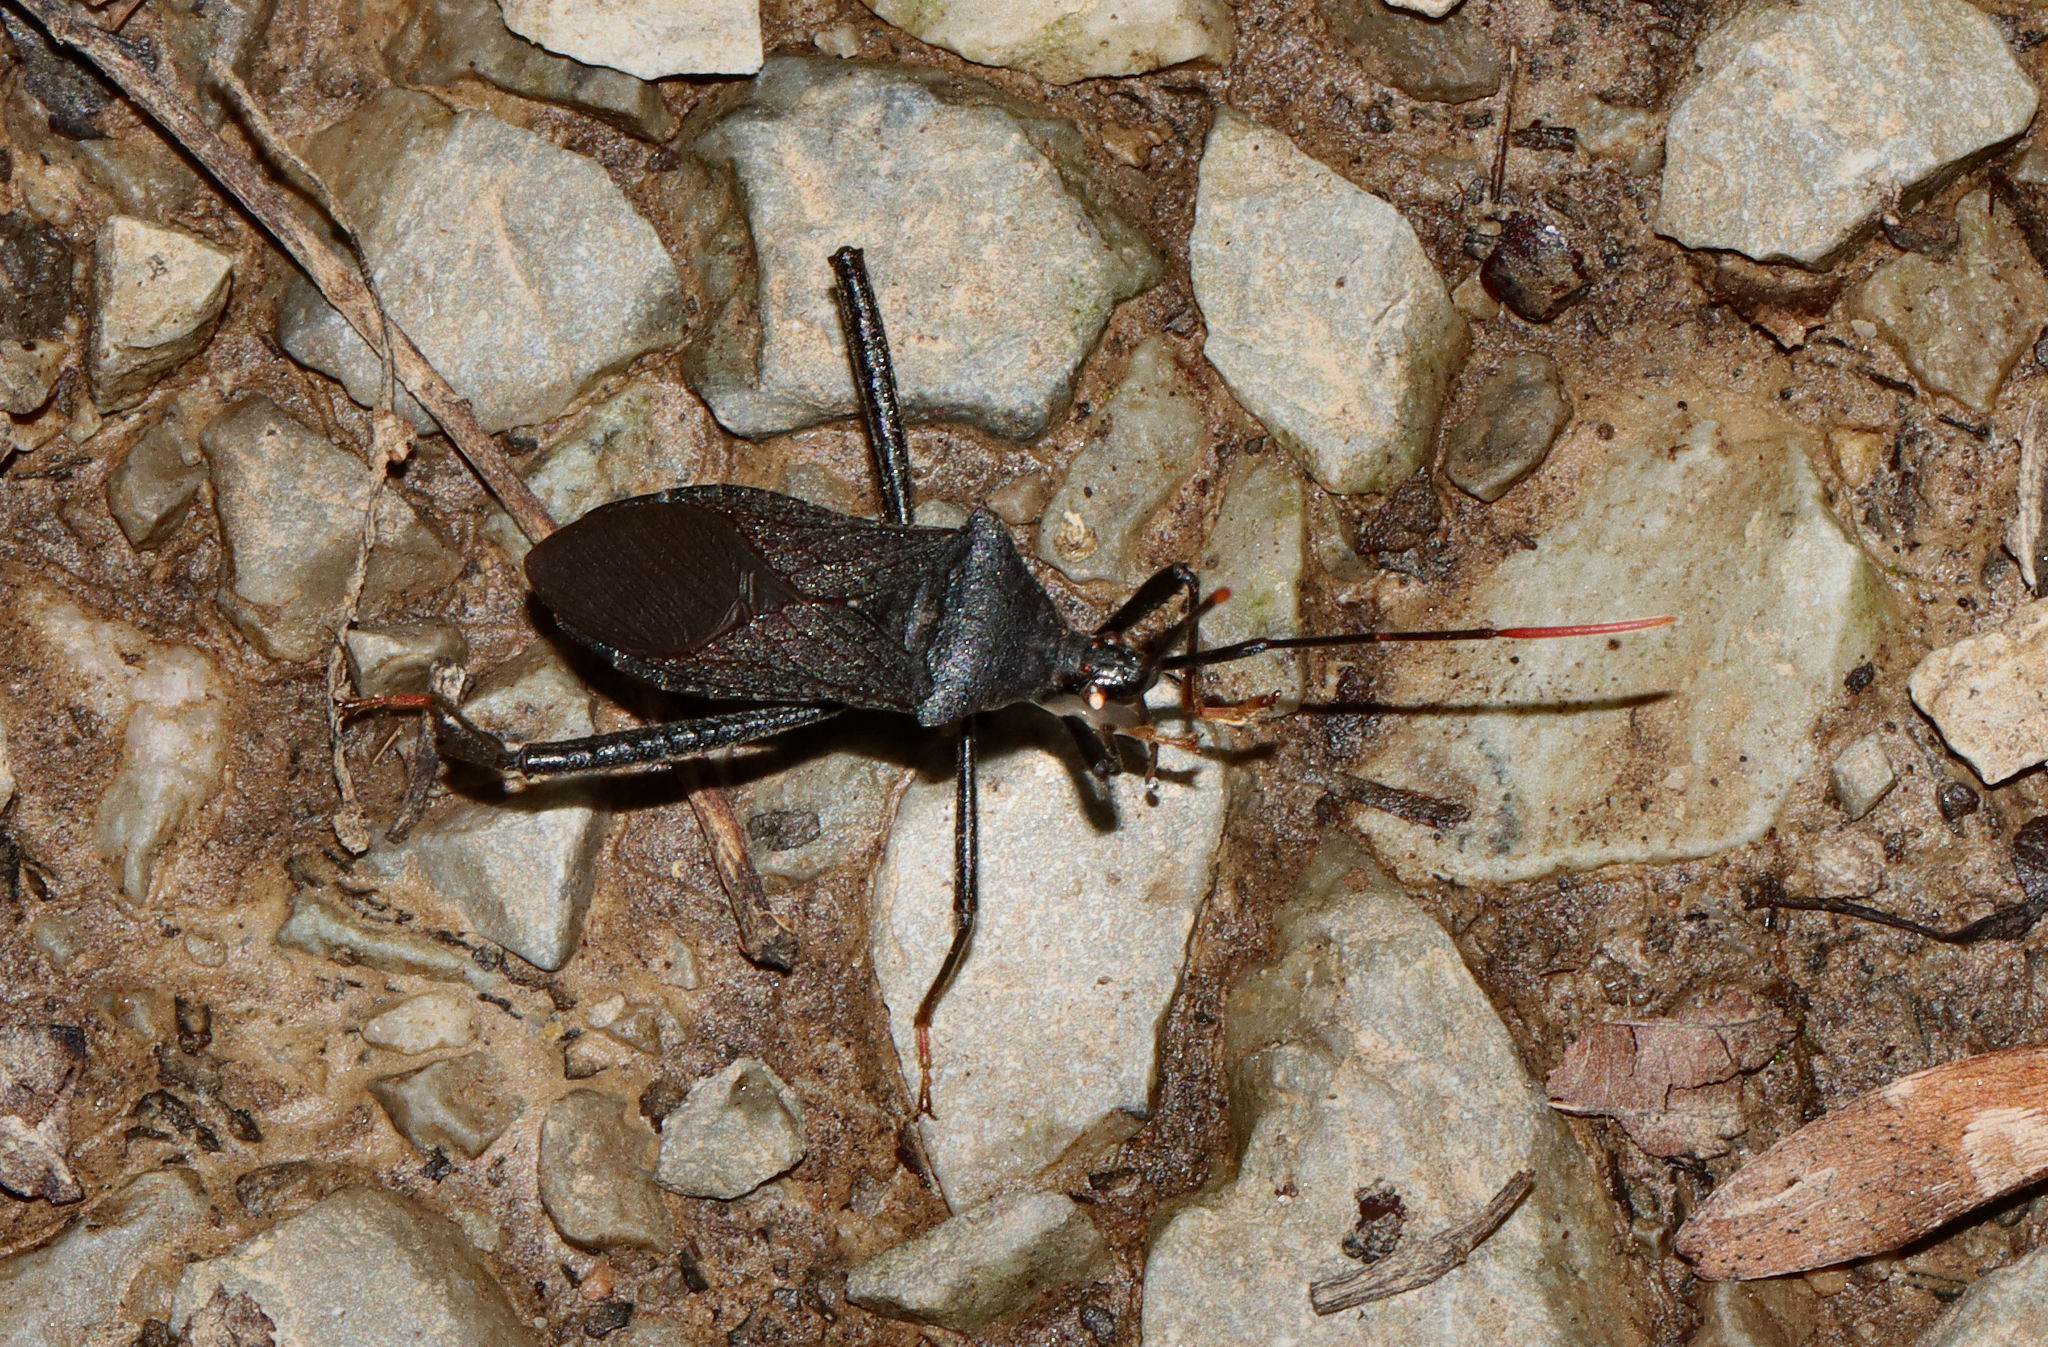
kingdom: Animalia
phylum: Arthropoda
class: Insecta
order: Hemiptera
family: Coreidae
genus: Acanthocephala
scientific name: Acanthocephala terminalis
